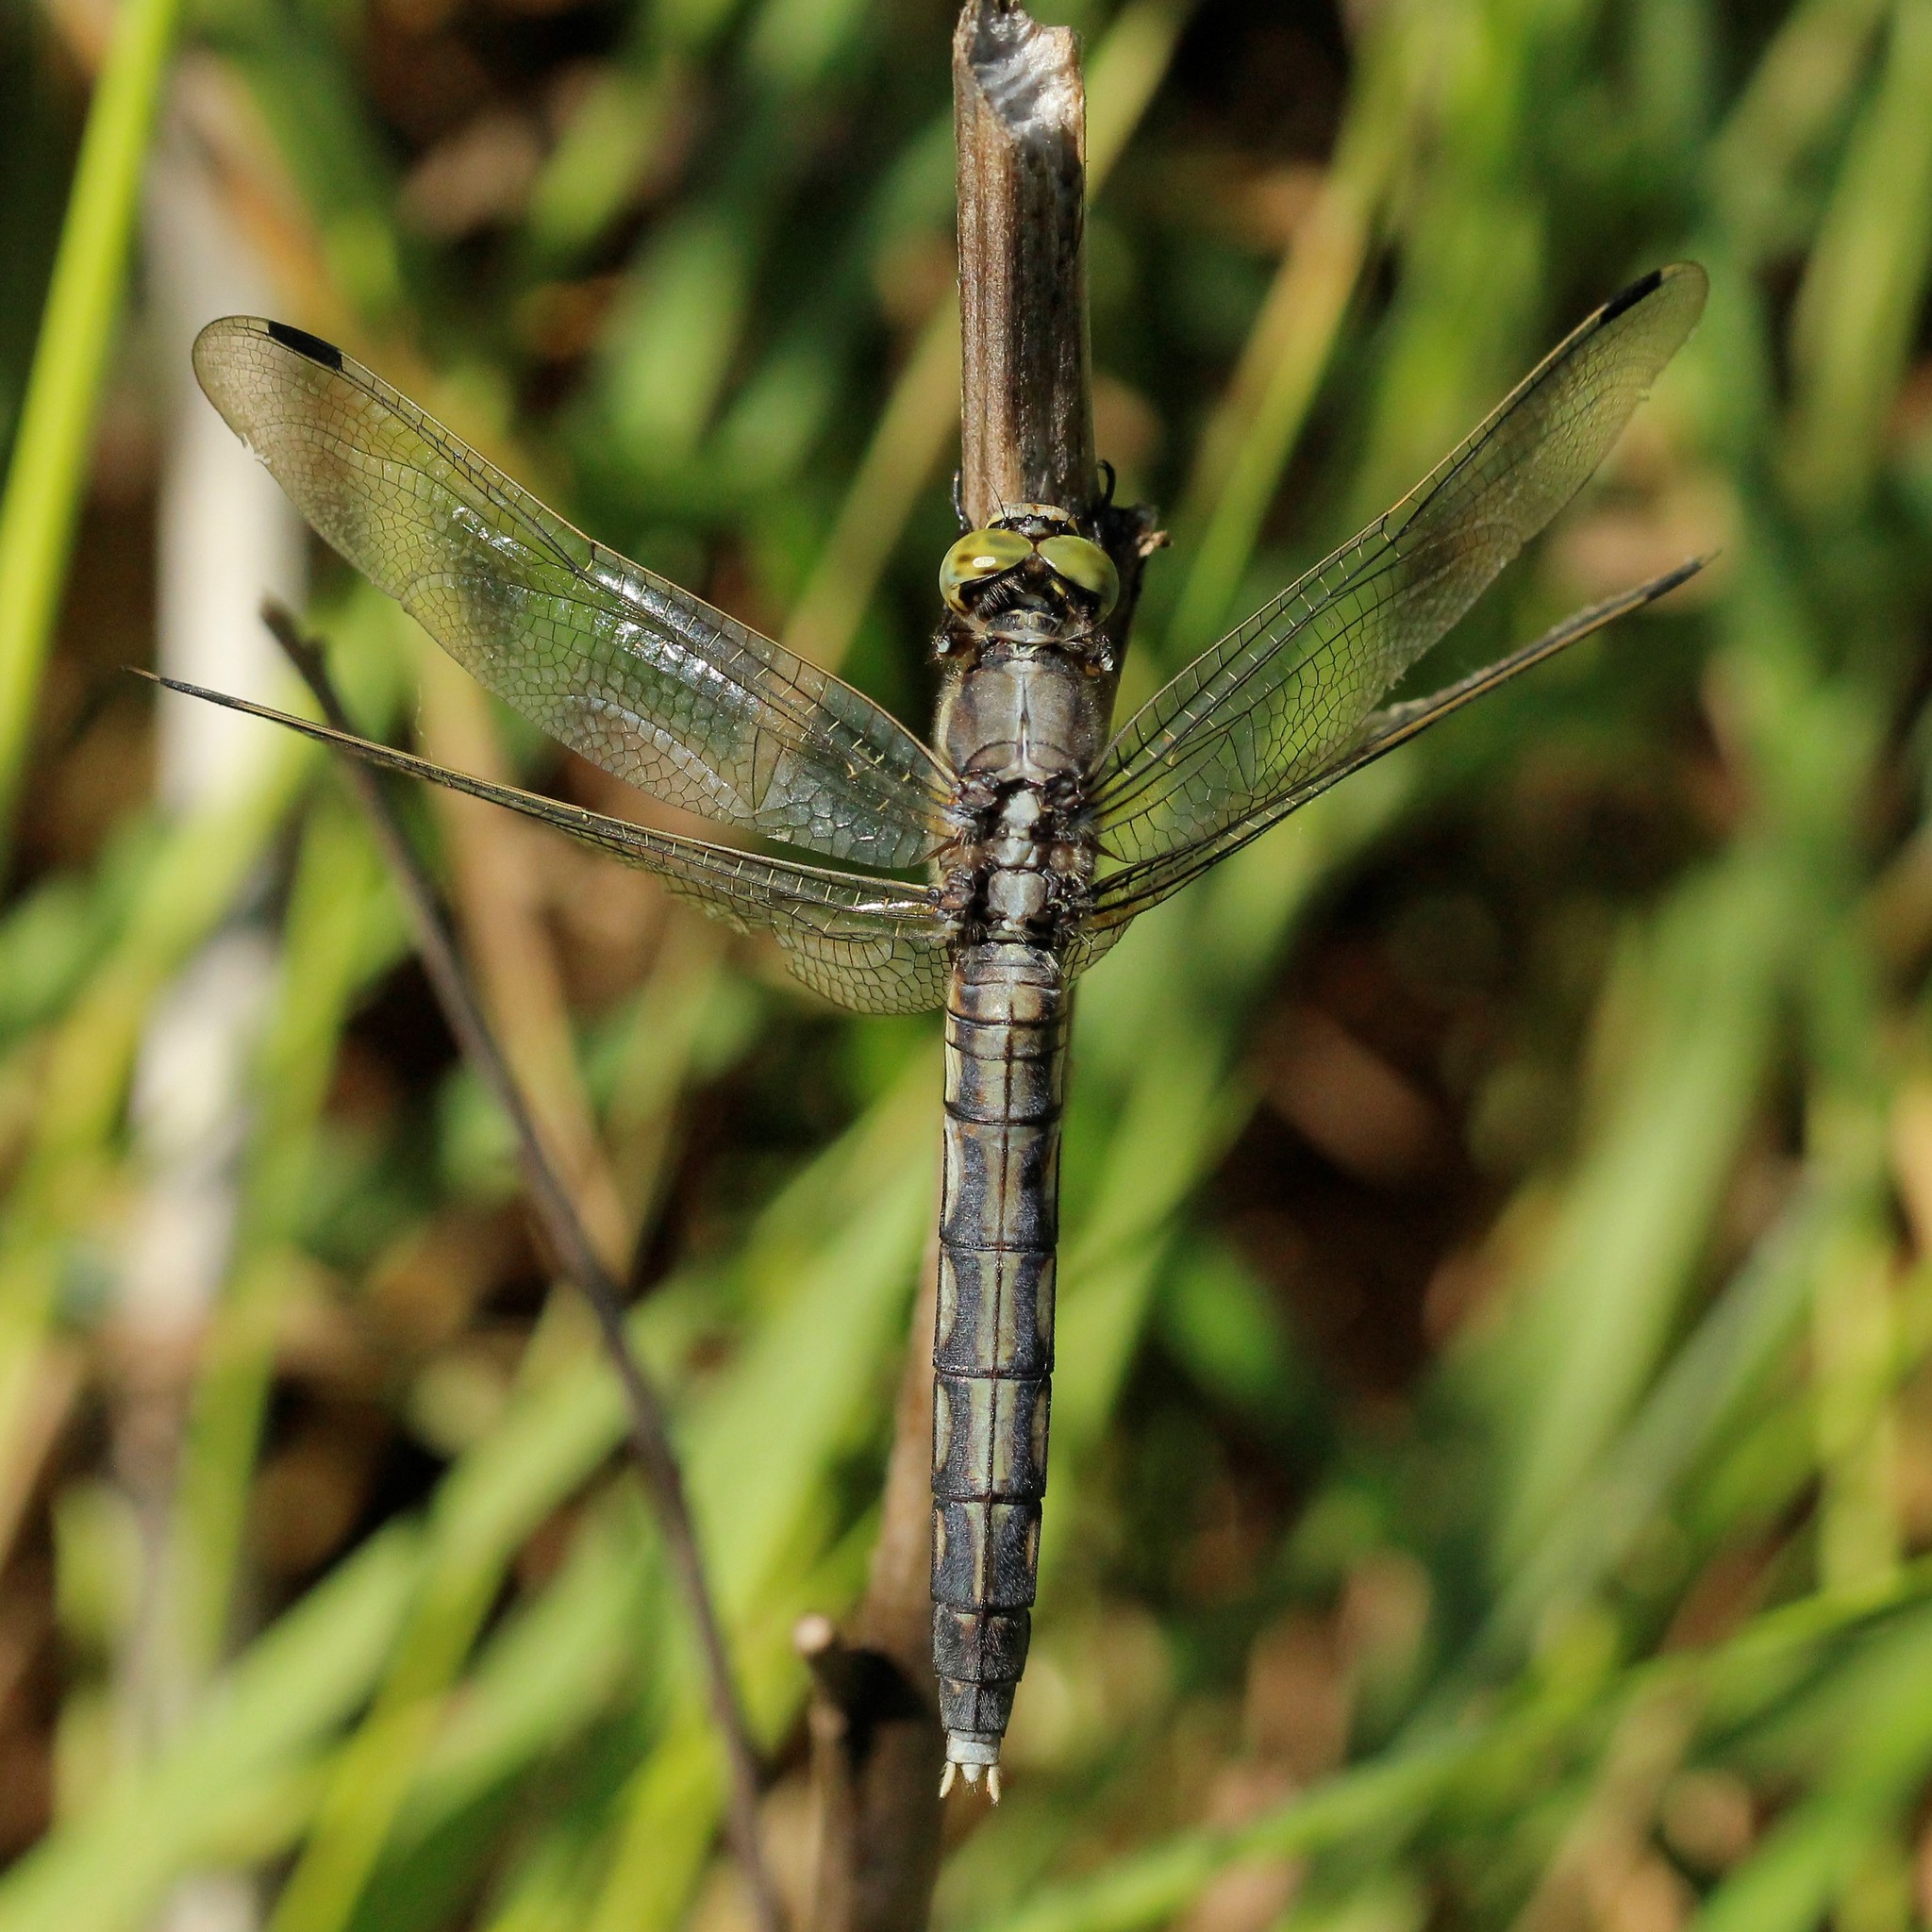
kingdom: Animalia
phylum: Arthropoda
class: Insecta
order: Odonata
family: Libellulidae
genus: Orthetrum
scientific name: Orthetrum albistylum
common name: White-tailed skimmer
